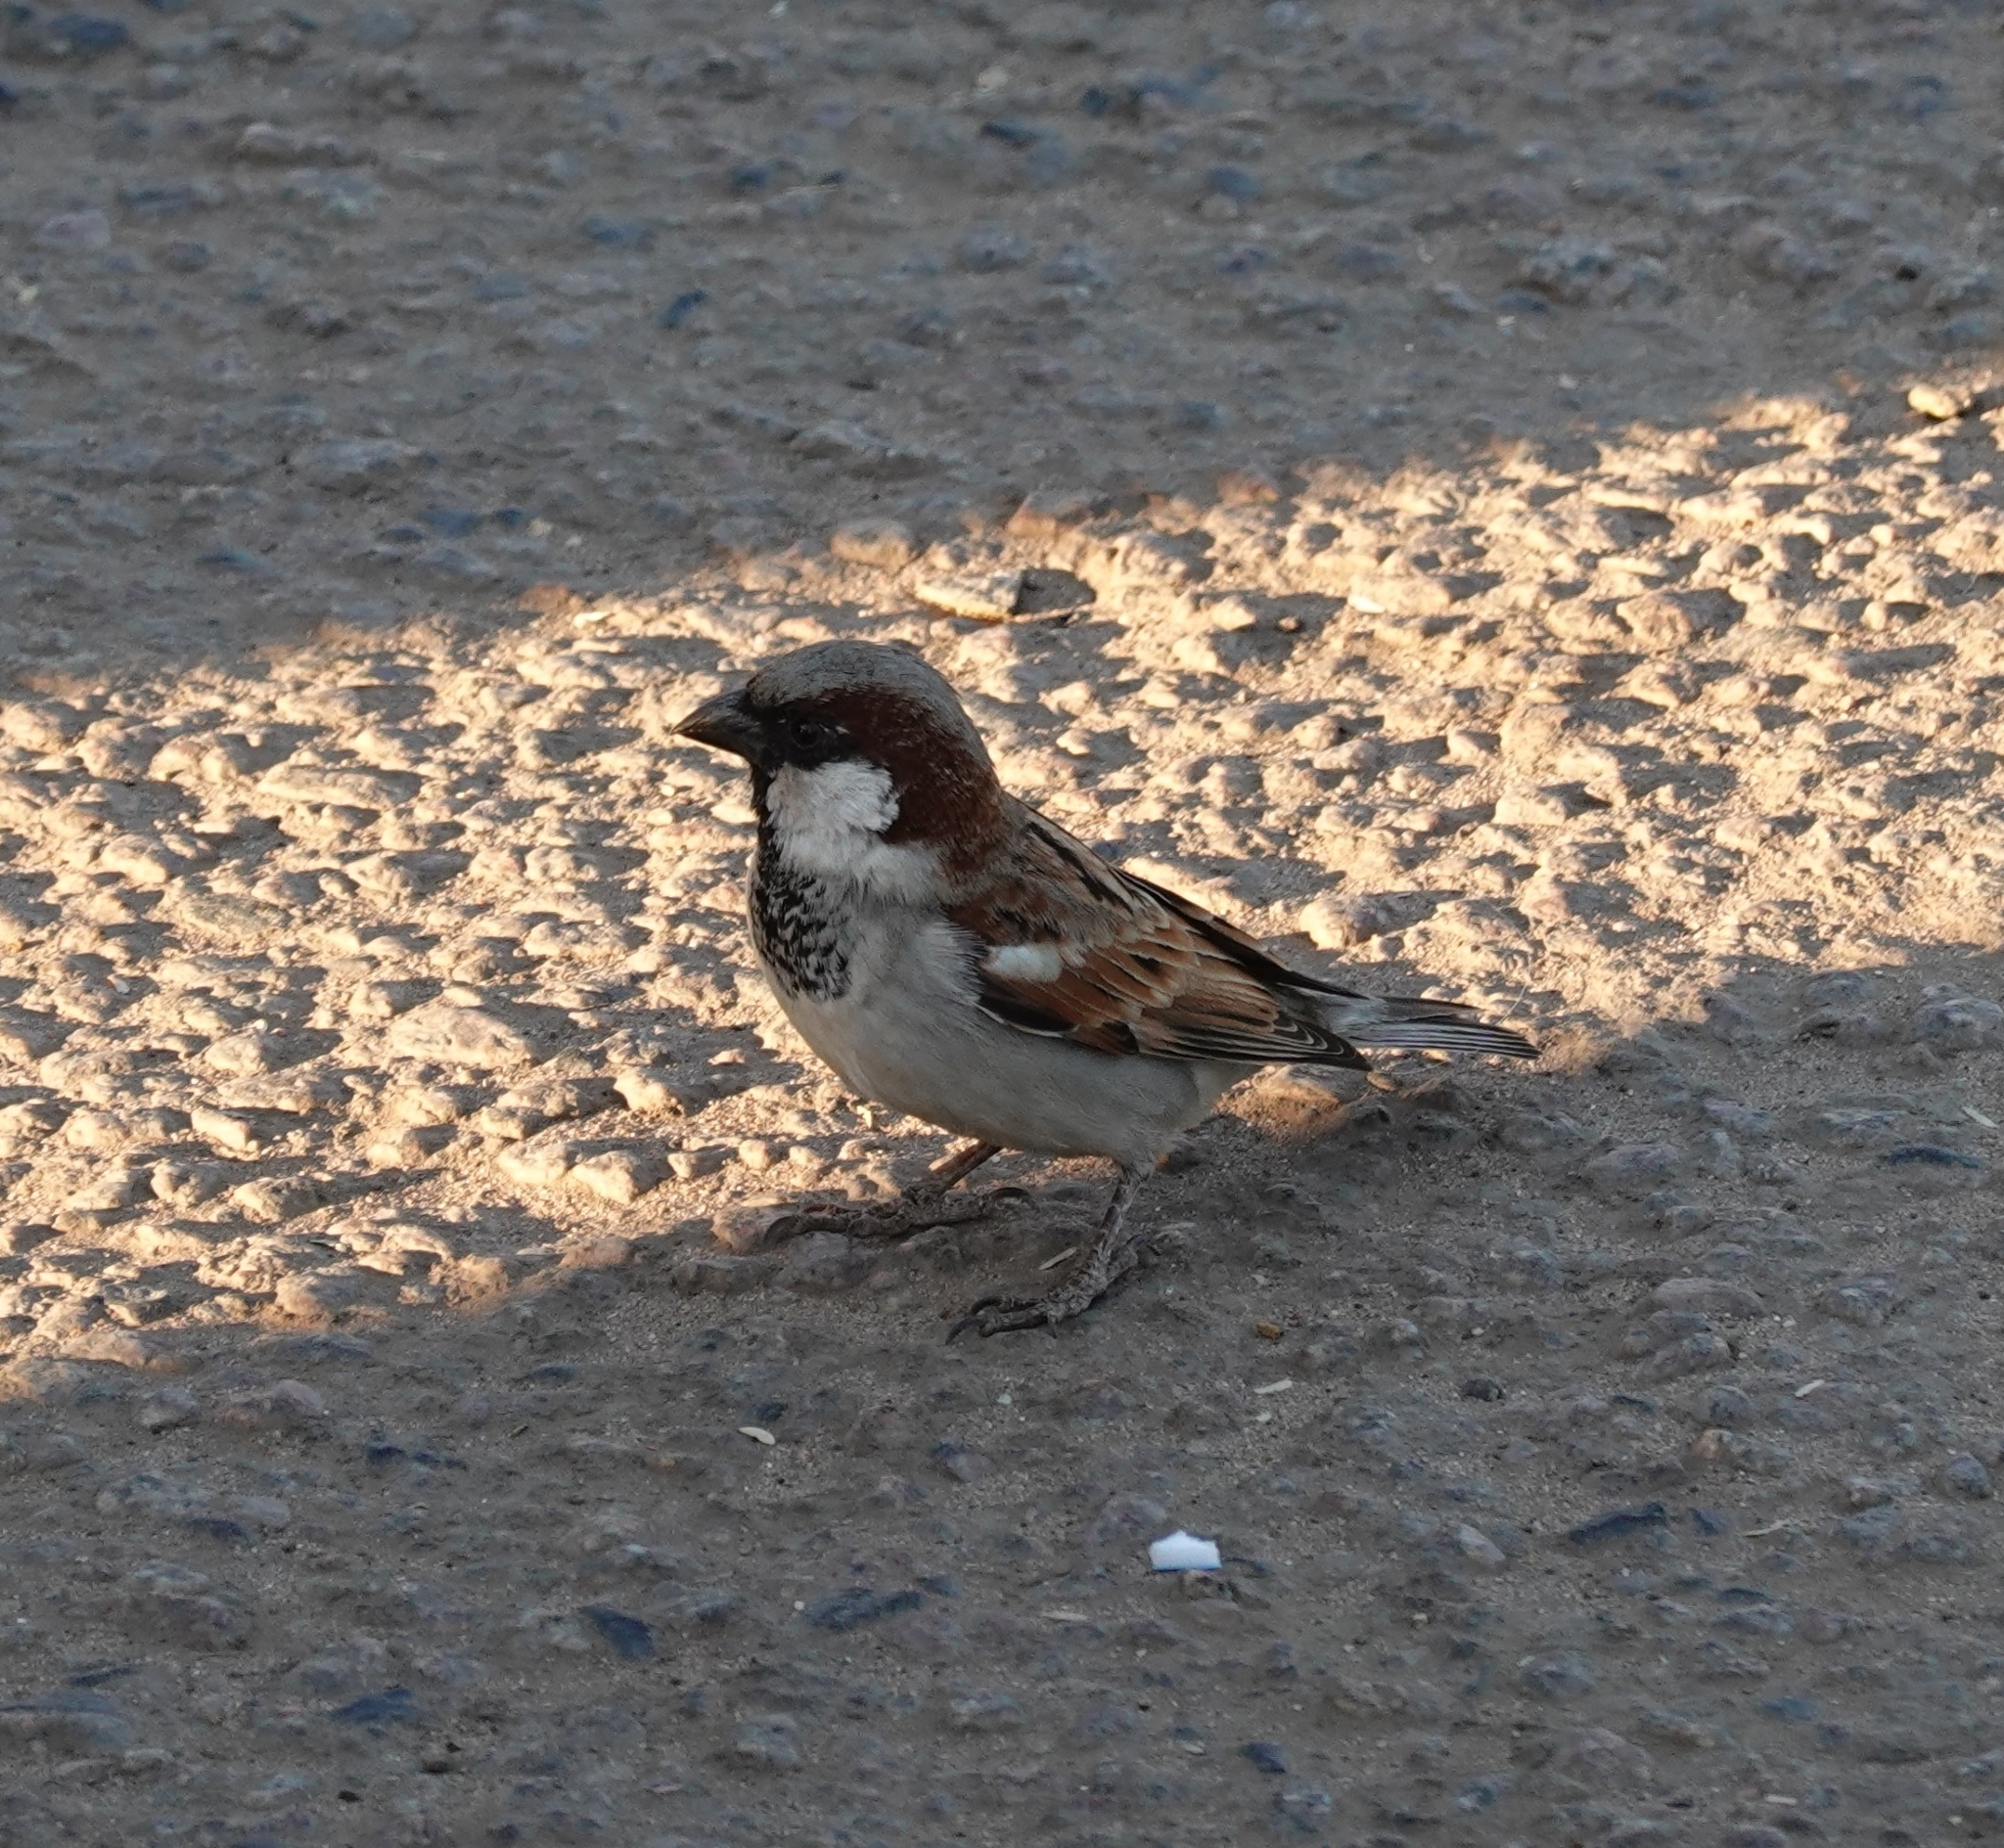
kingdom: Animalia
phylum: Chordata
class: Aves
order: Passeriformes
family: Passeridae
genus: Passer
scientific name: Passer domesticus
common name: House sparrow
